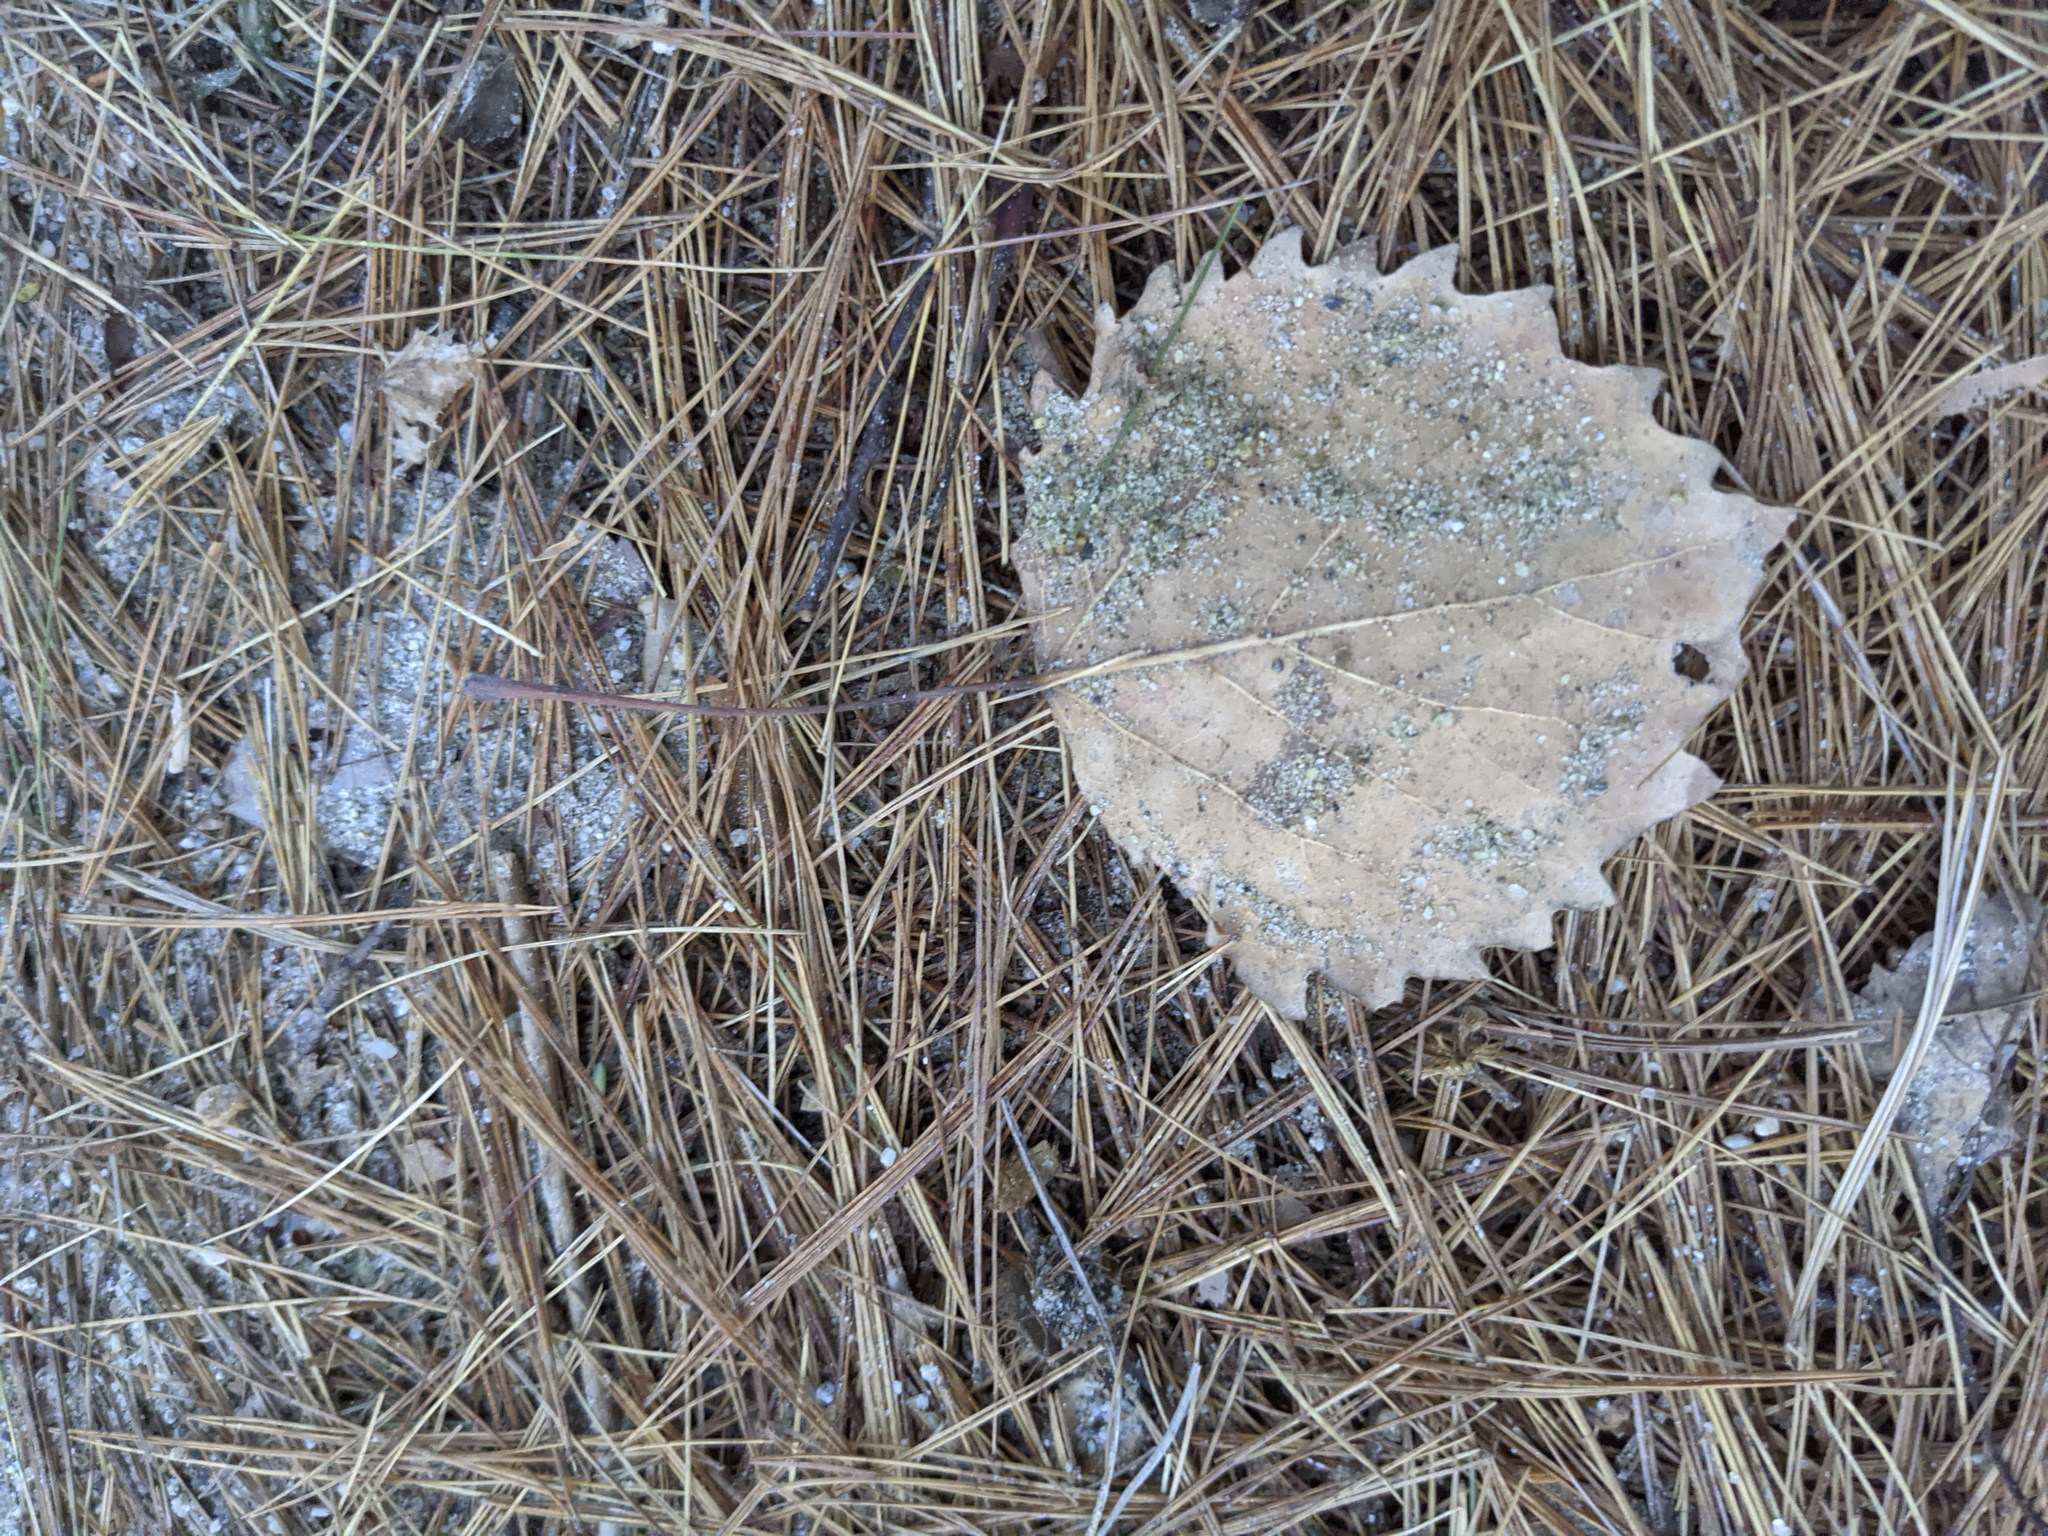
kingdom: Plantae
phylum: Tracheophyta
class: Magnoliopsida
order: Malpighiales
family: Salicaceae
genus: Populus
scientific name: Populus grandidentata
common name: Bigtooth aspen
